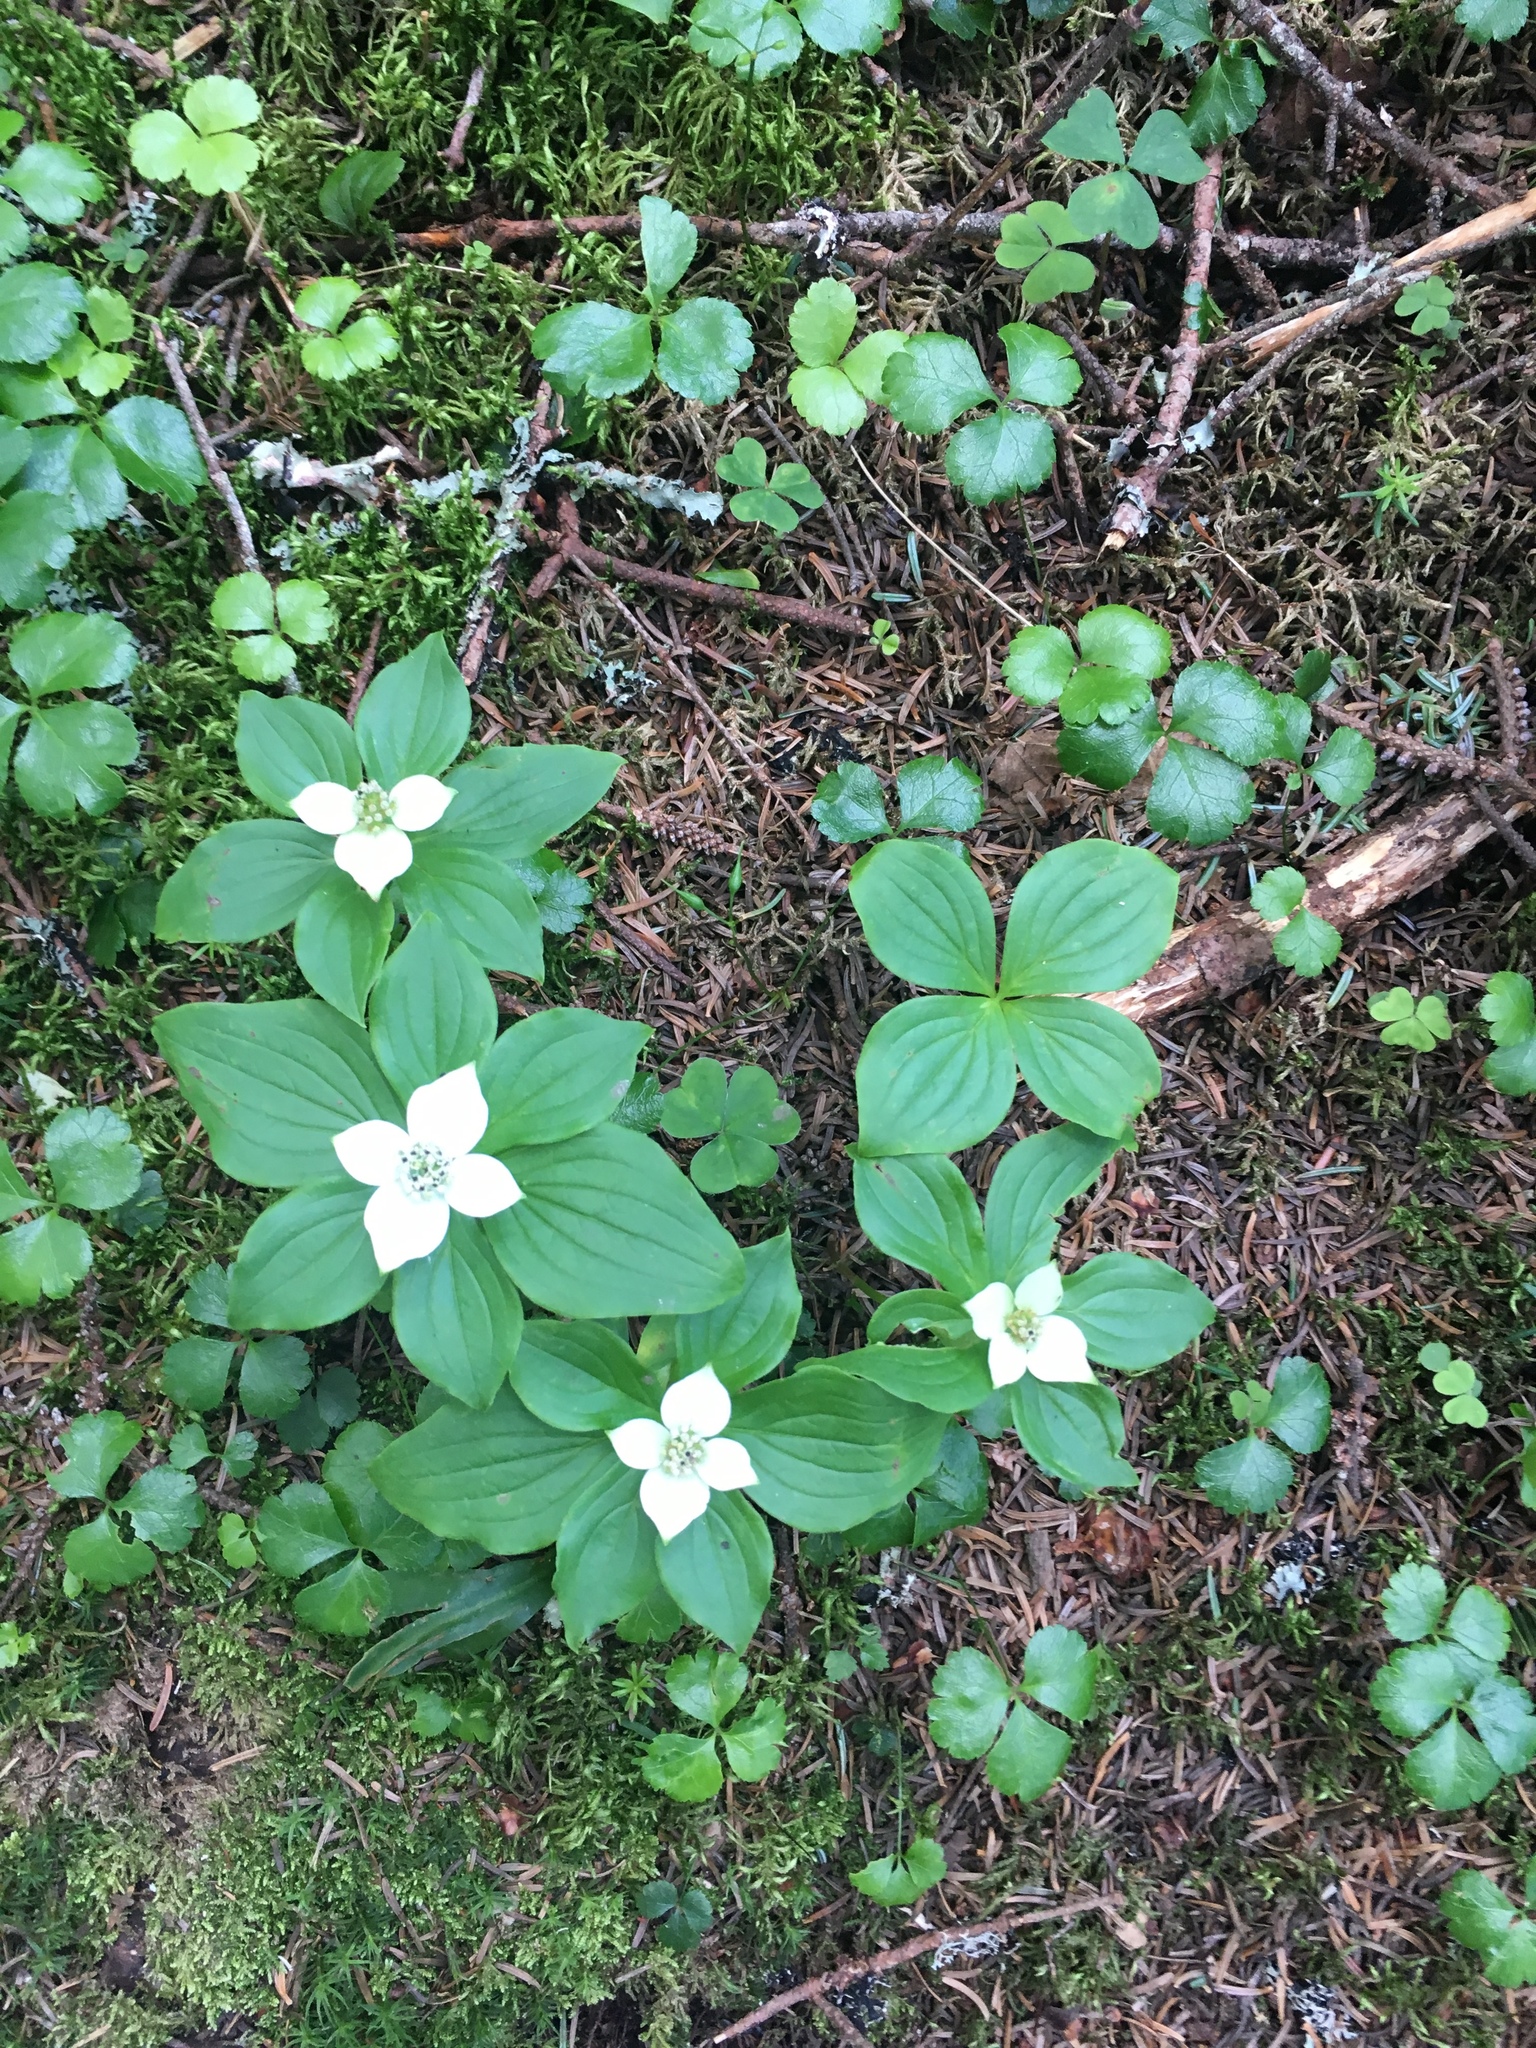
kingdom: Plantae
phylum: Tracheophyta
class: Magnoliopsida
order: Cornales
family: Cornaceae
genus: Cornus
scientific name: Cornus canadensis
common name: Creeping dogwood
